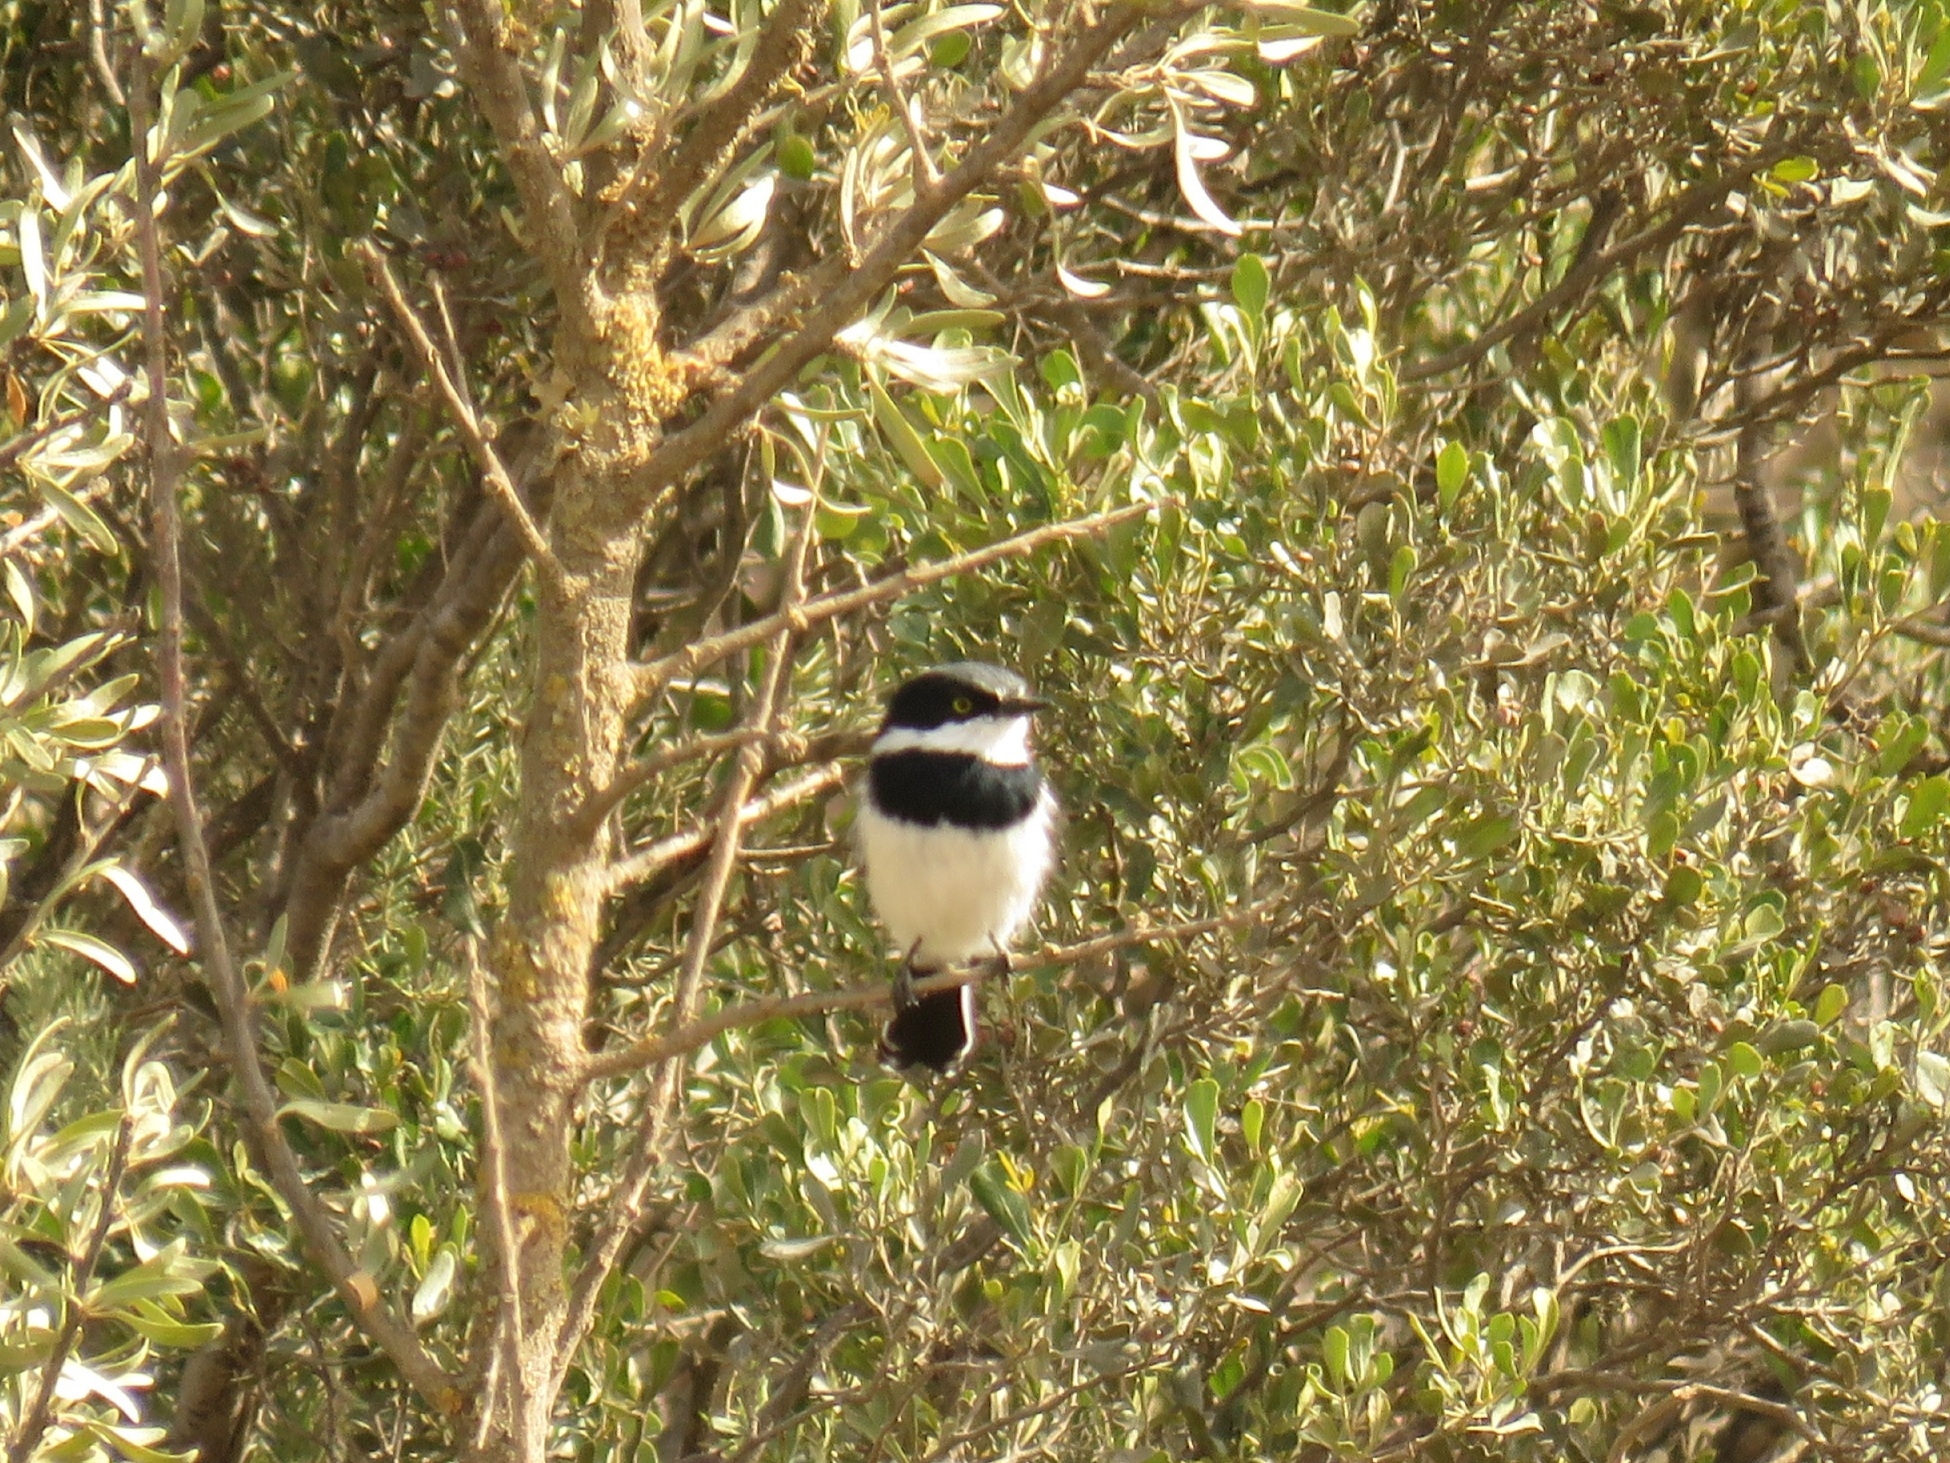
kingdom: Animalia
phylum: Chordata
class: Aves
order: Passeriformes
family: Platysteiridae
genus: Batis
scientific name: Batis pririt
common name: Pririt batis
